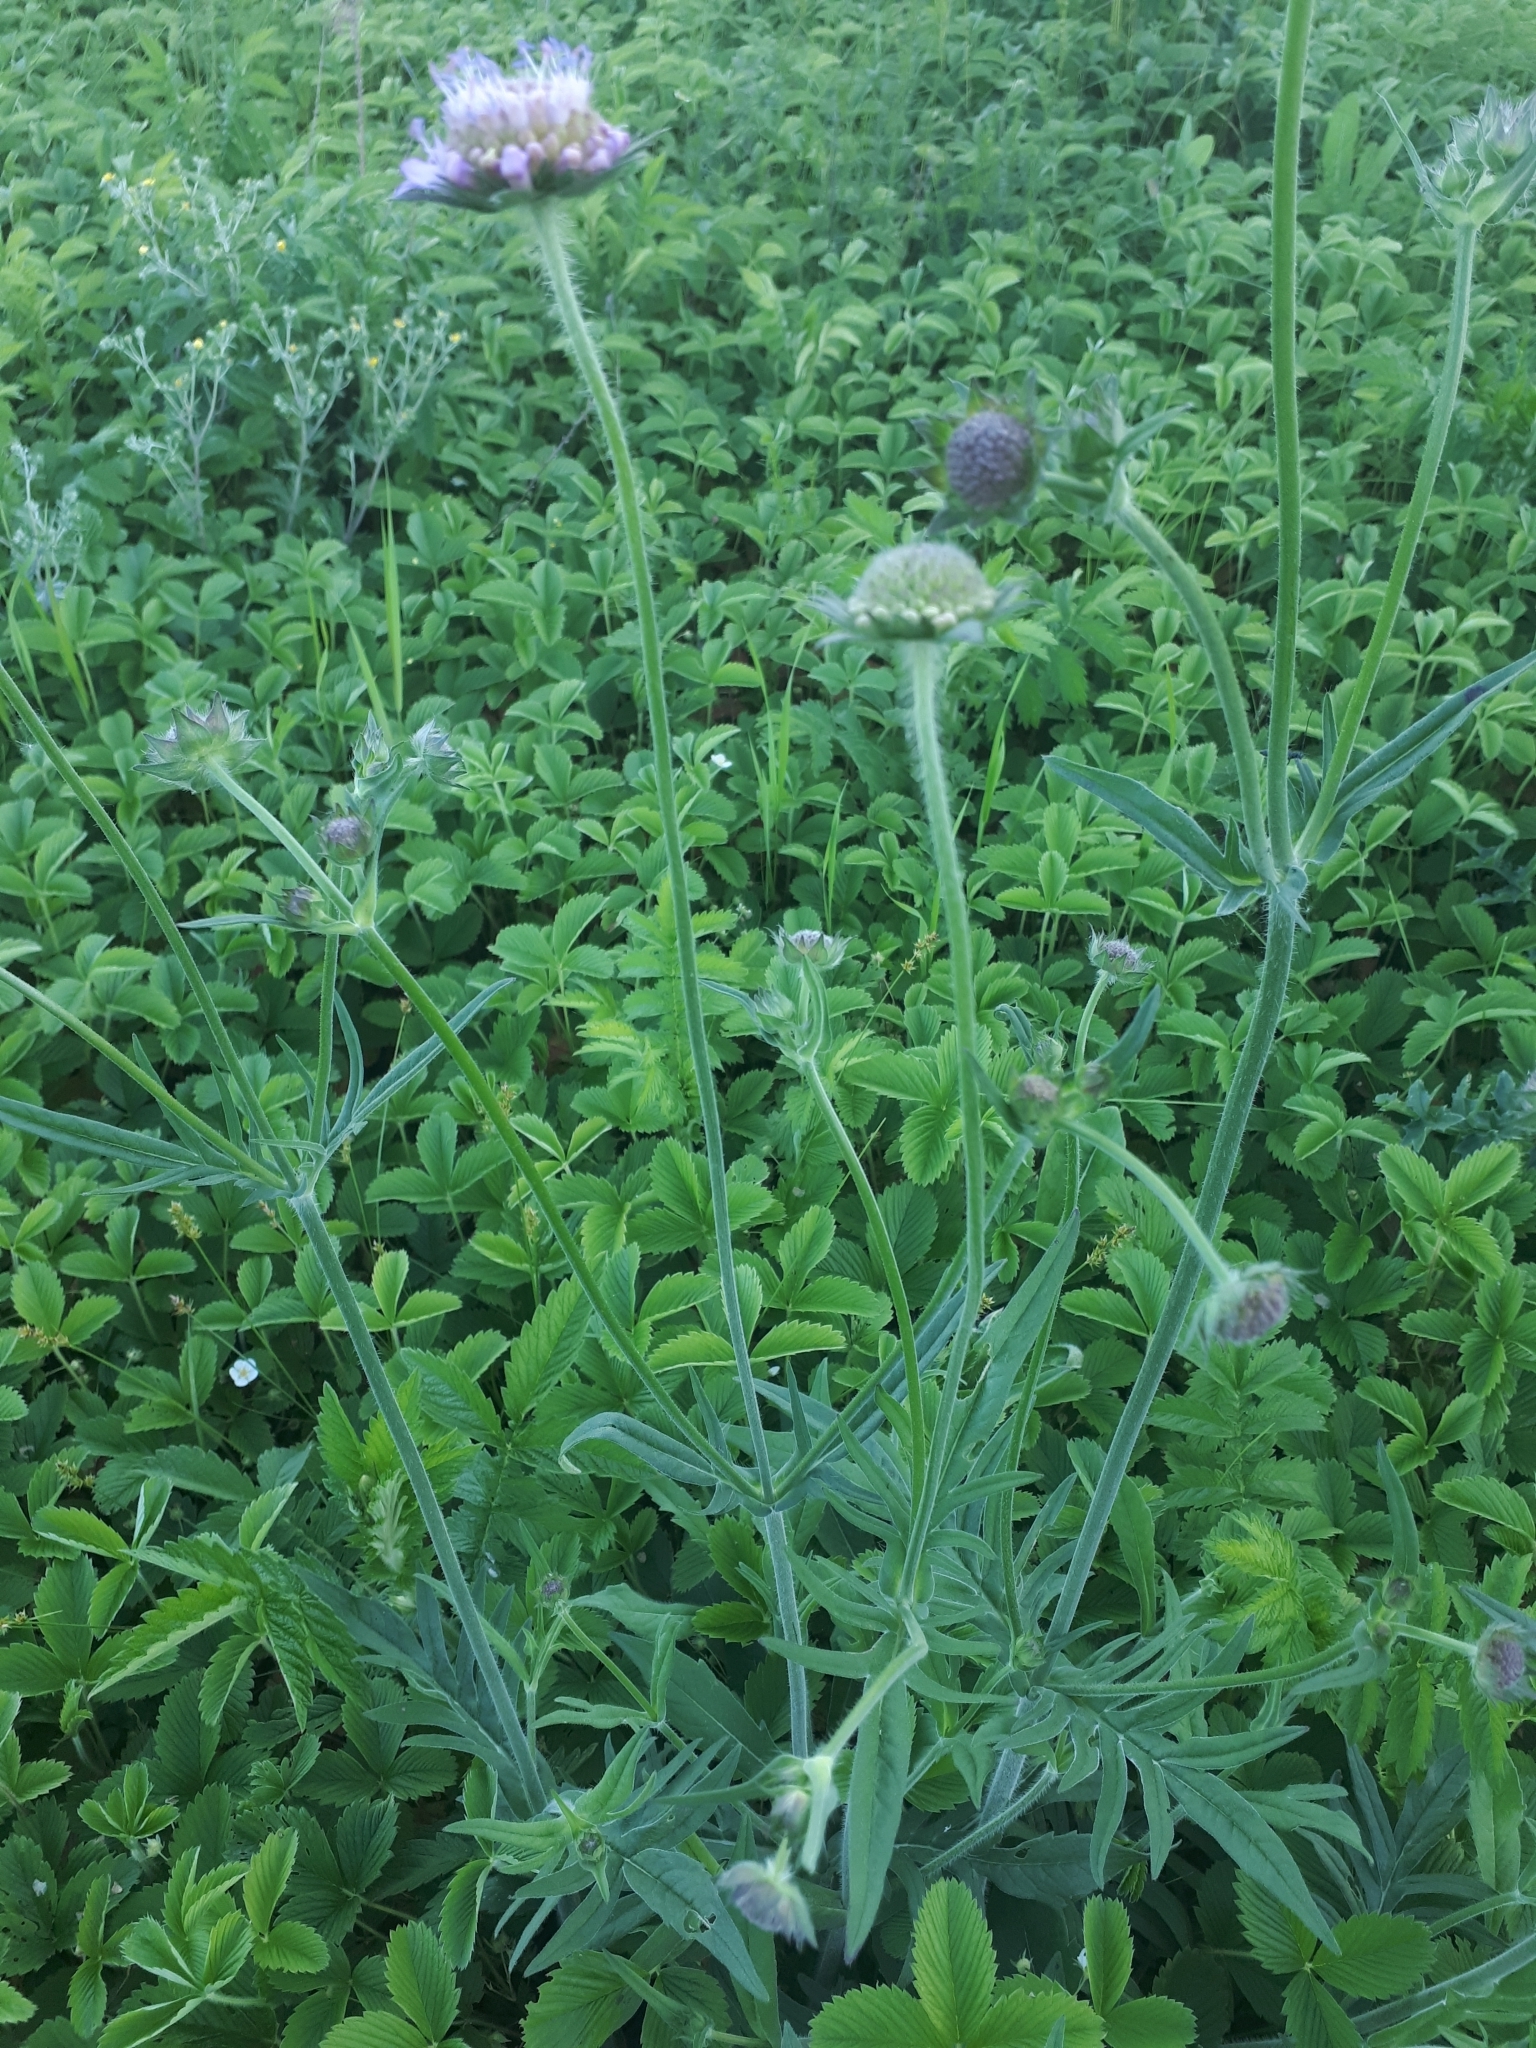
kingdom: Plantae
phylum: Tracheophyta
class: Magnoliopsida
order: Dipsacales
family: Caprifoliaceae
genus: Knautia
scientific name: Knautia arvensis
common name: Field scabiosa
